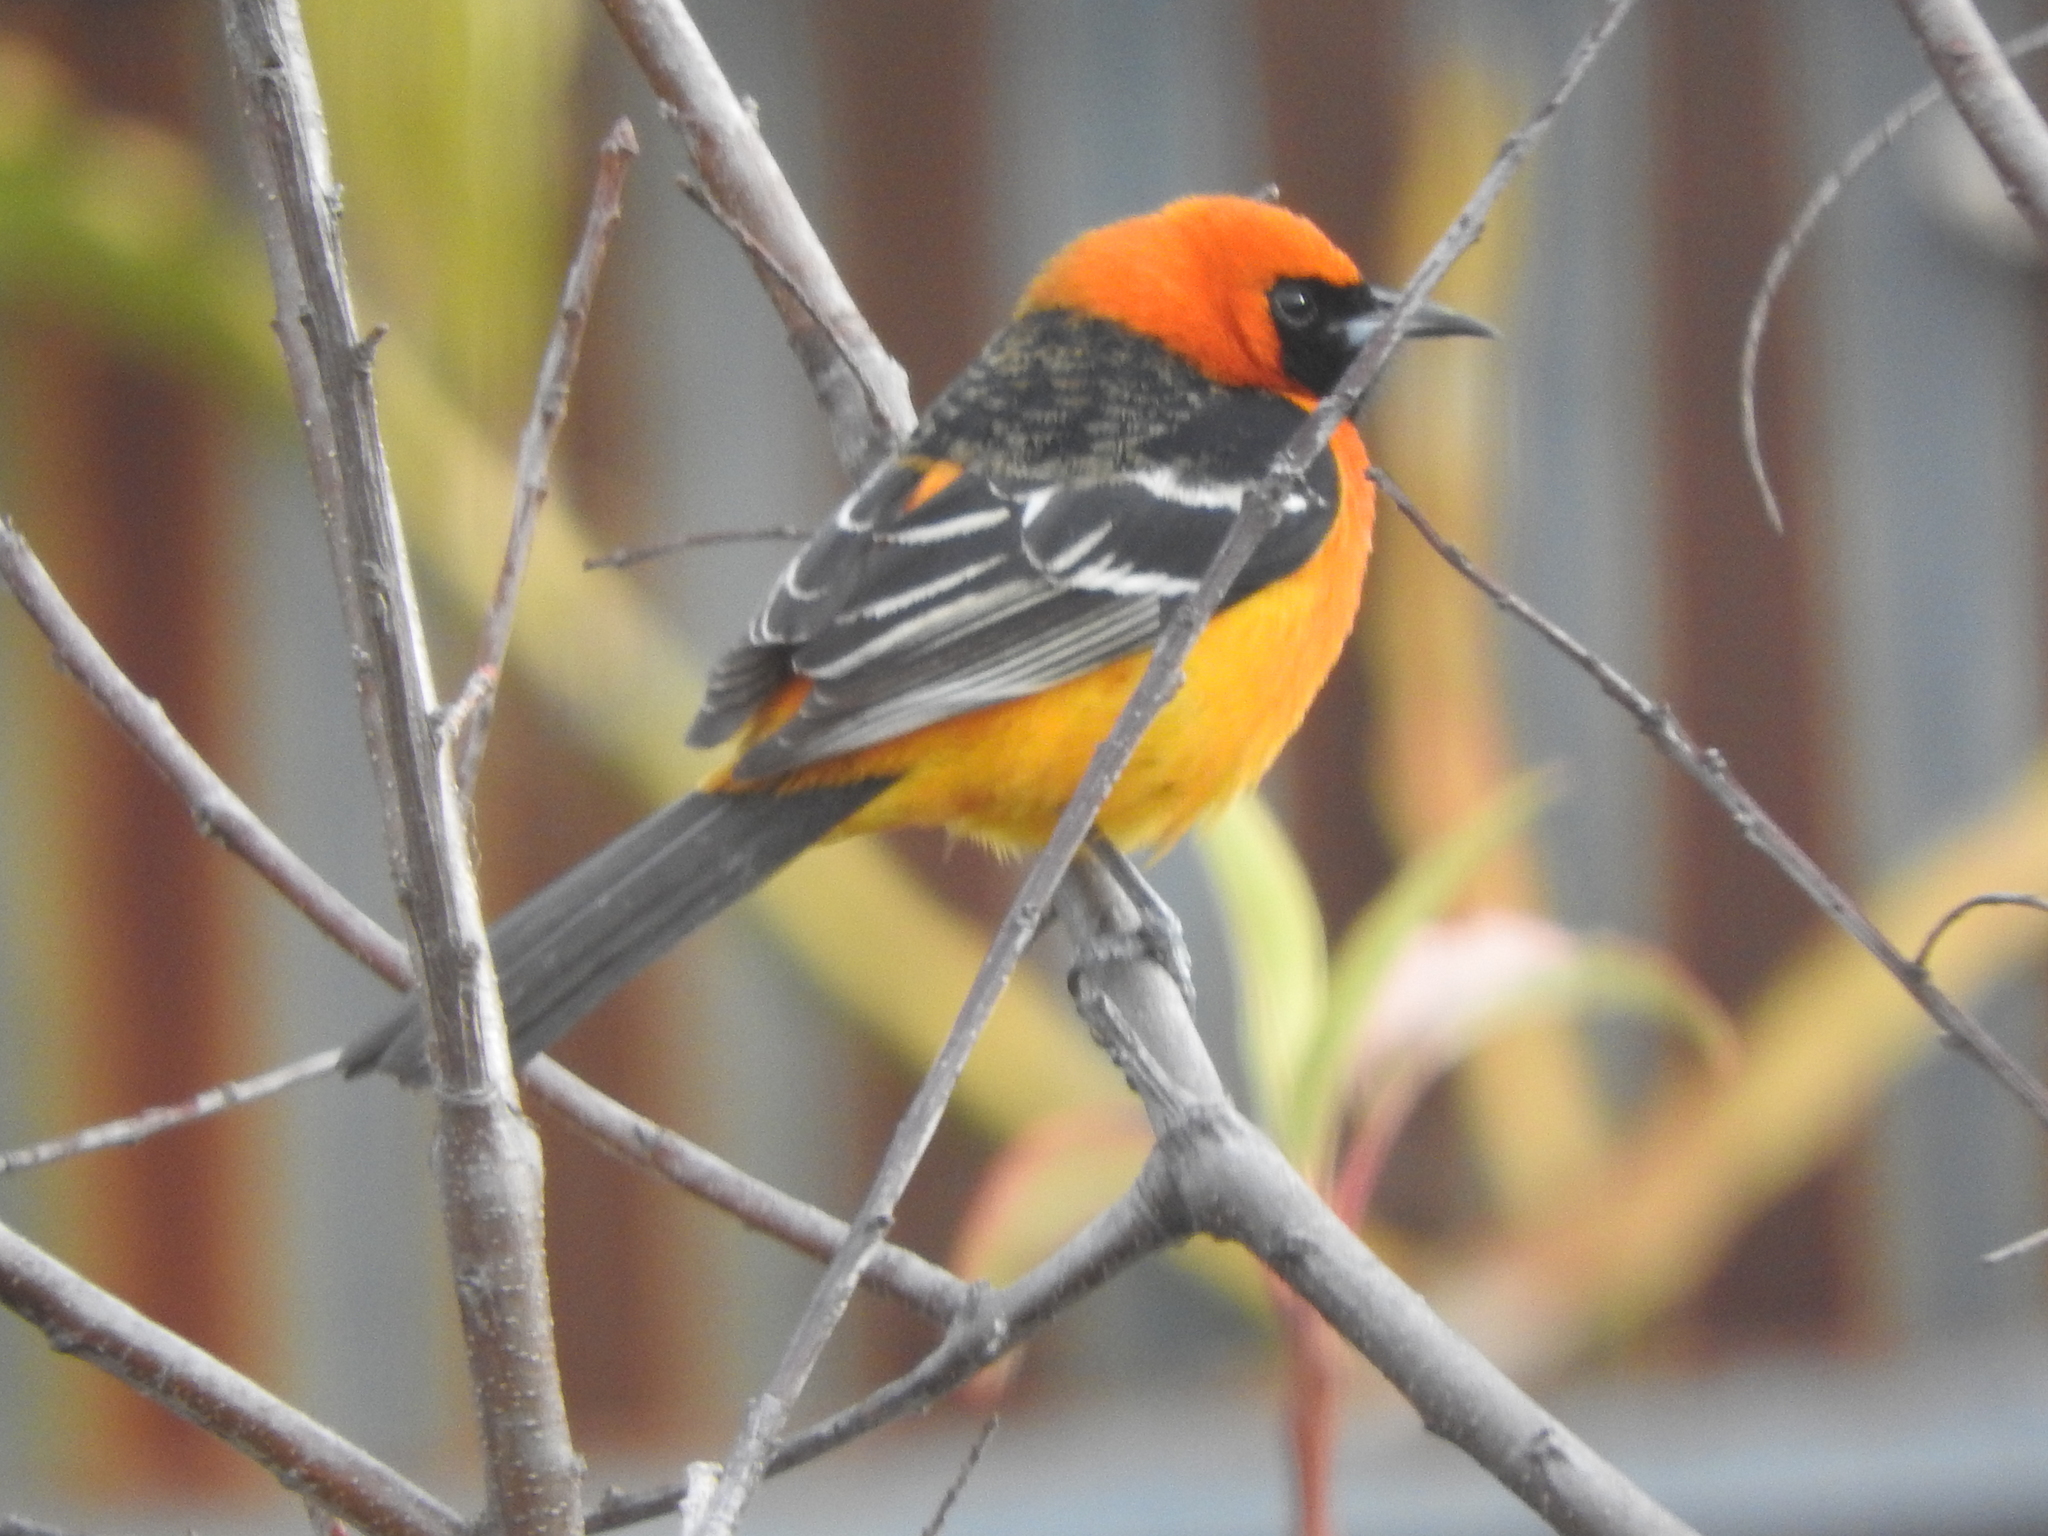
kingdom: Animalia
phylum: Chordata
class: Aves
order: Passeriformes
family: Icteridae
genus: Icterus
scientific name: Icterus cucullatus
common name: Hooded oriole
